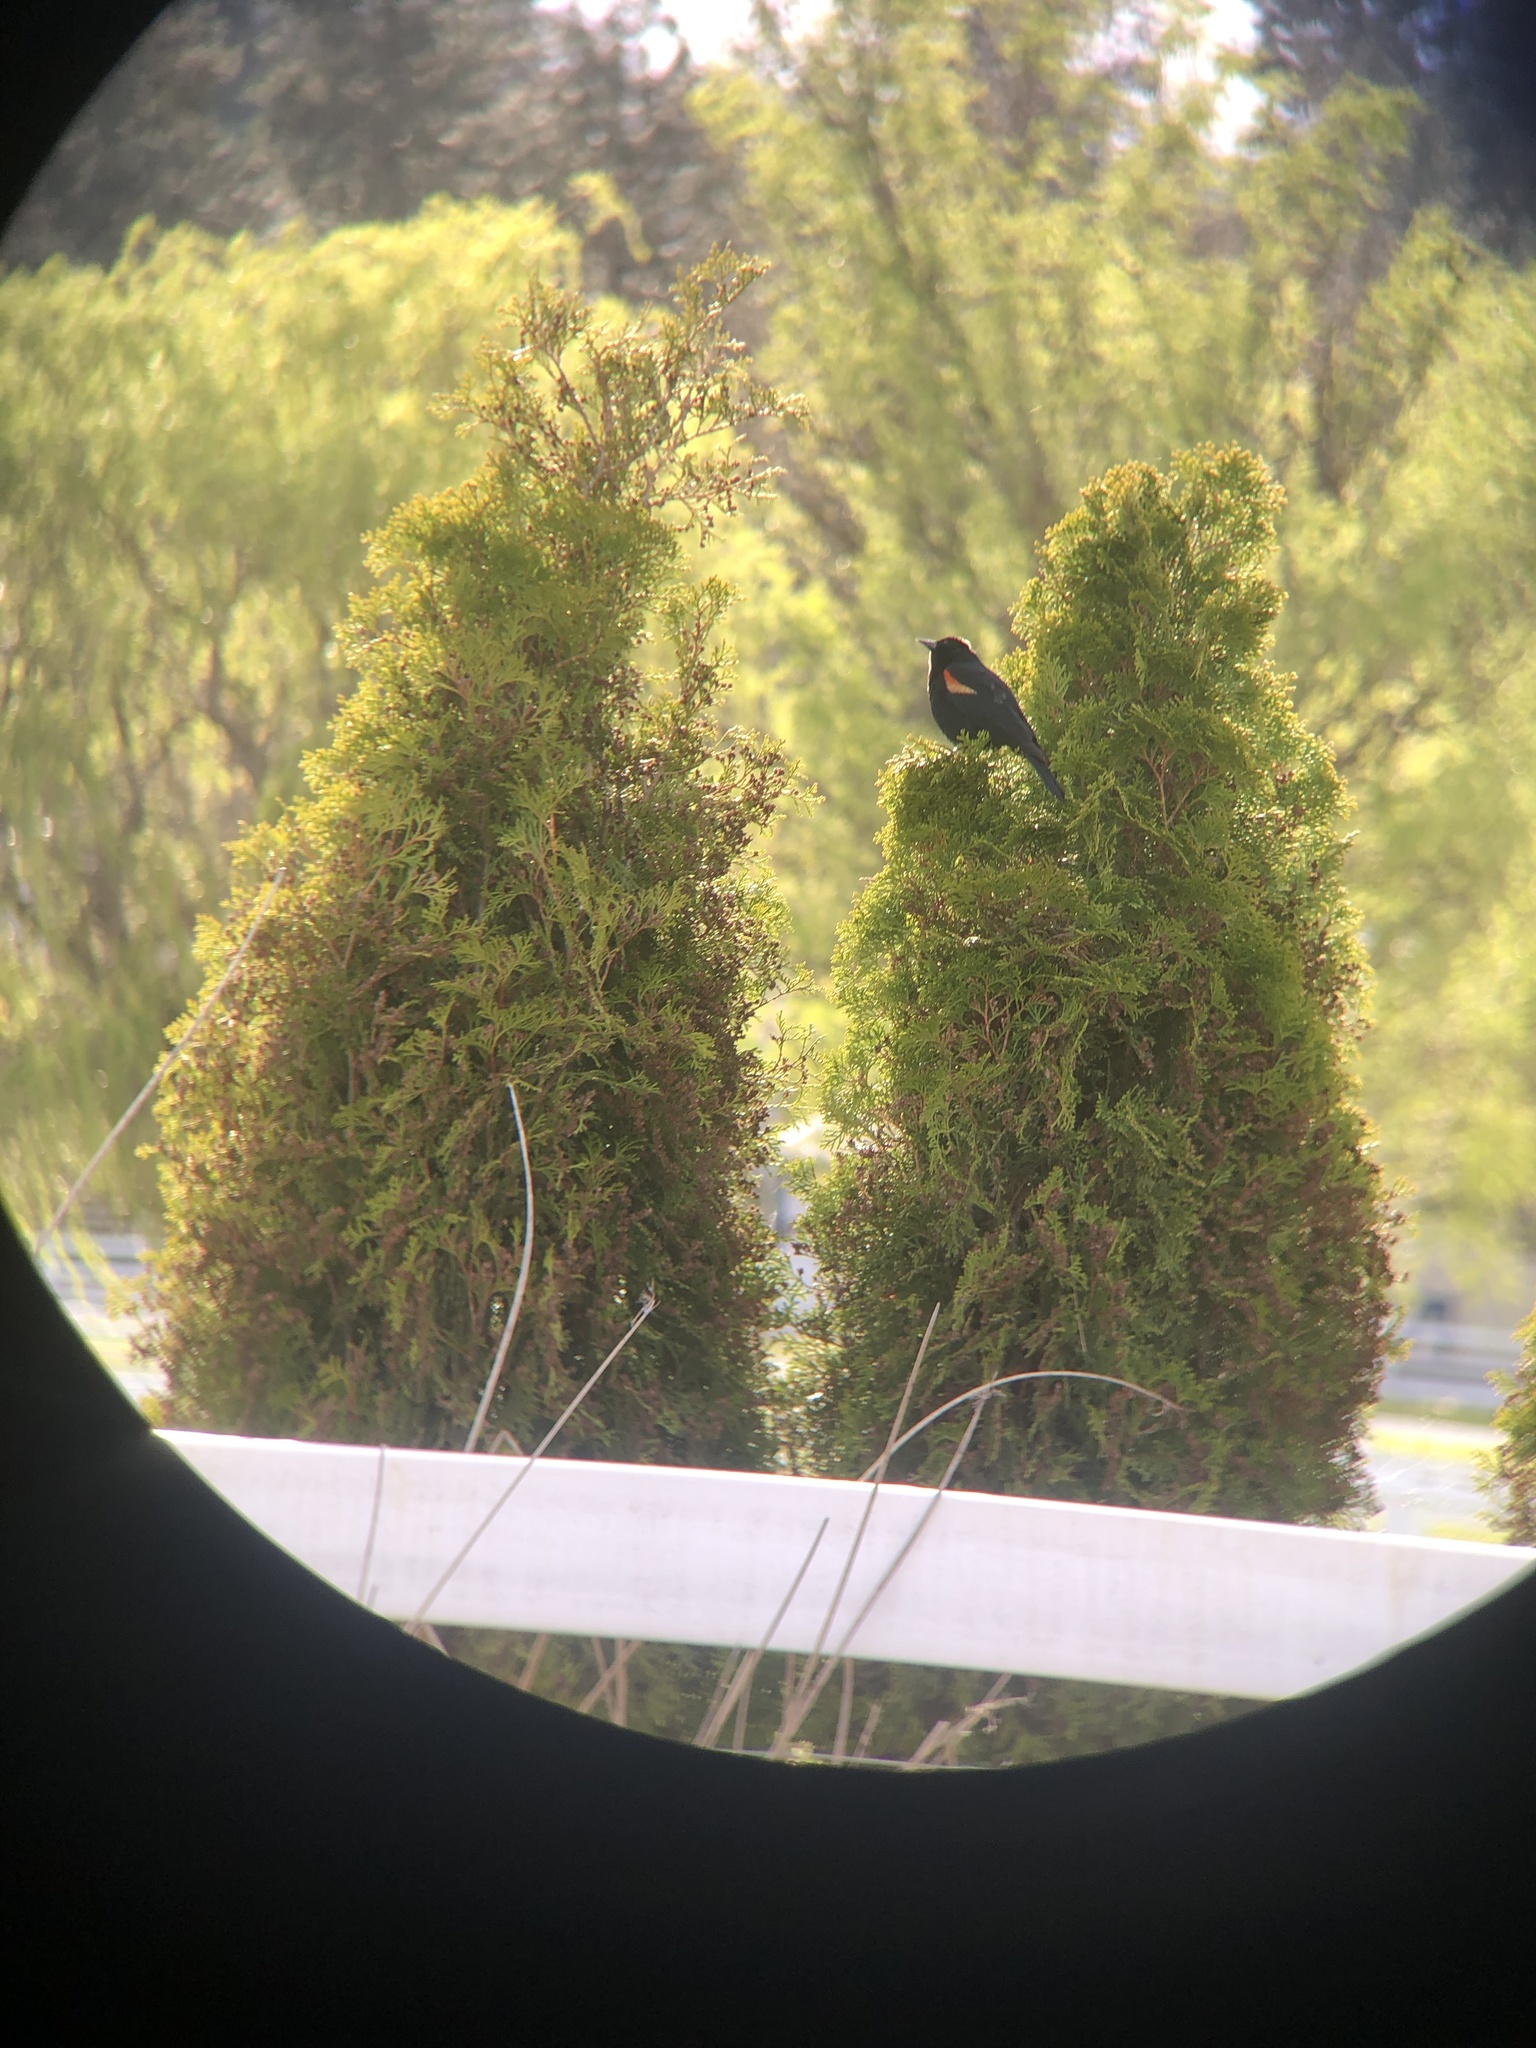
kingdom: Animalia
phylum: Chordata
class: Aves
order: Passeriformes
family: Icteridae
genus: Agelaius
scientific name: Agelaius phoeniceus
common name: Red-winged blackbird
